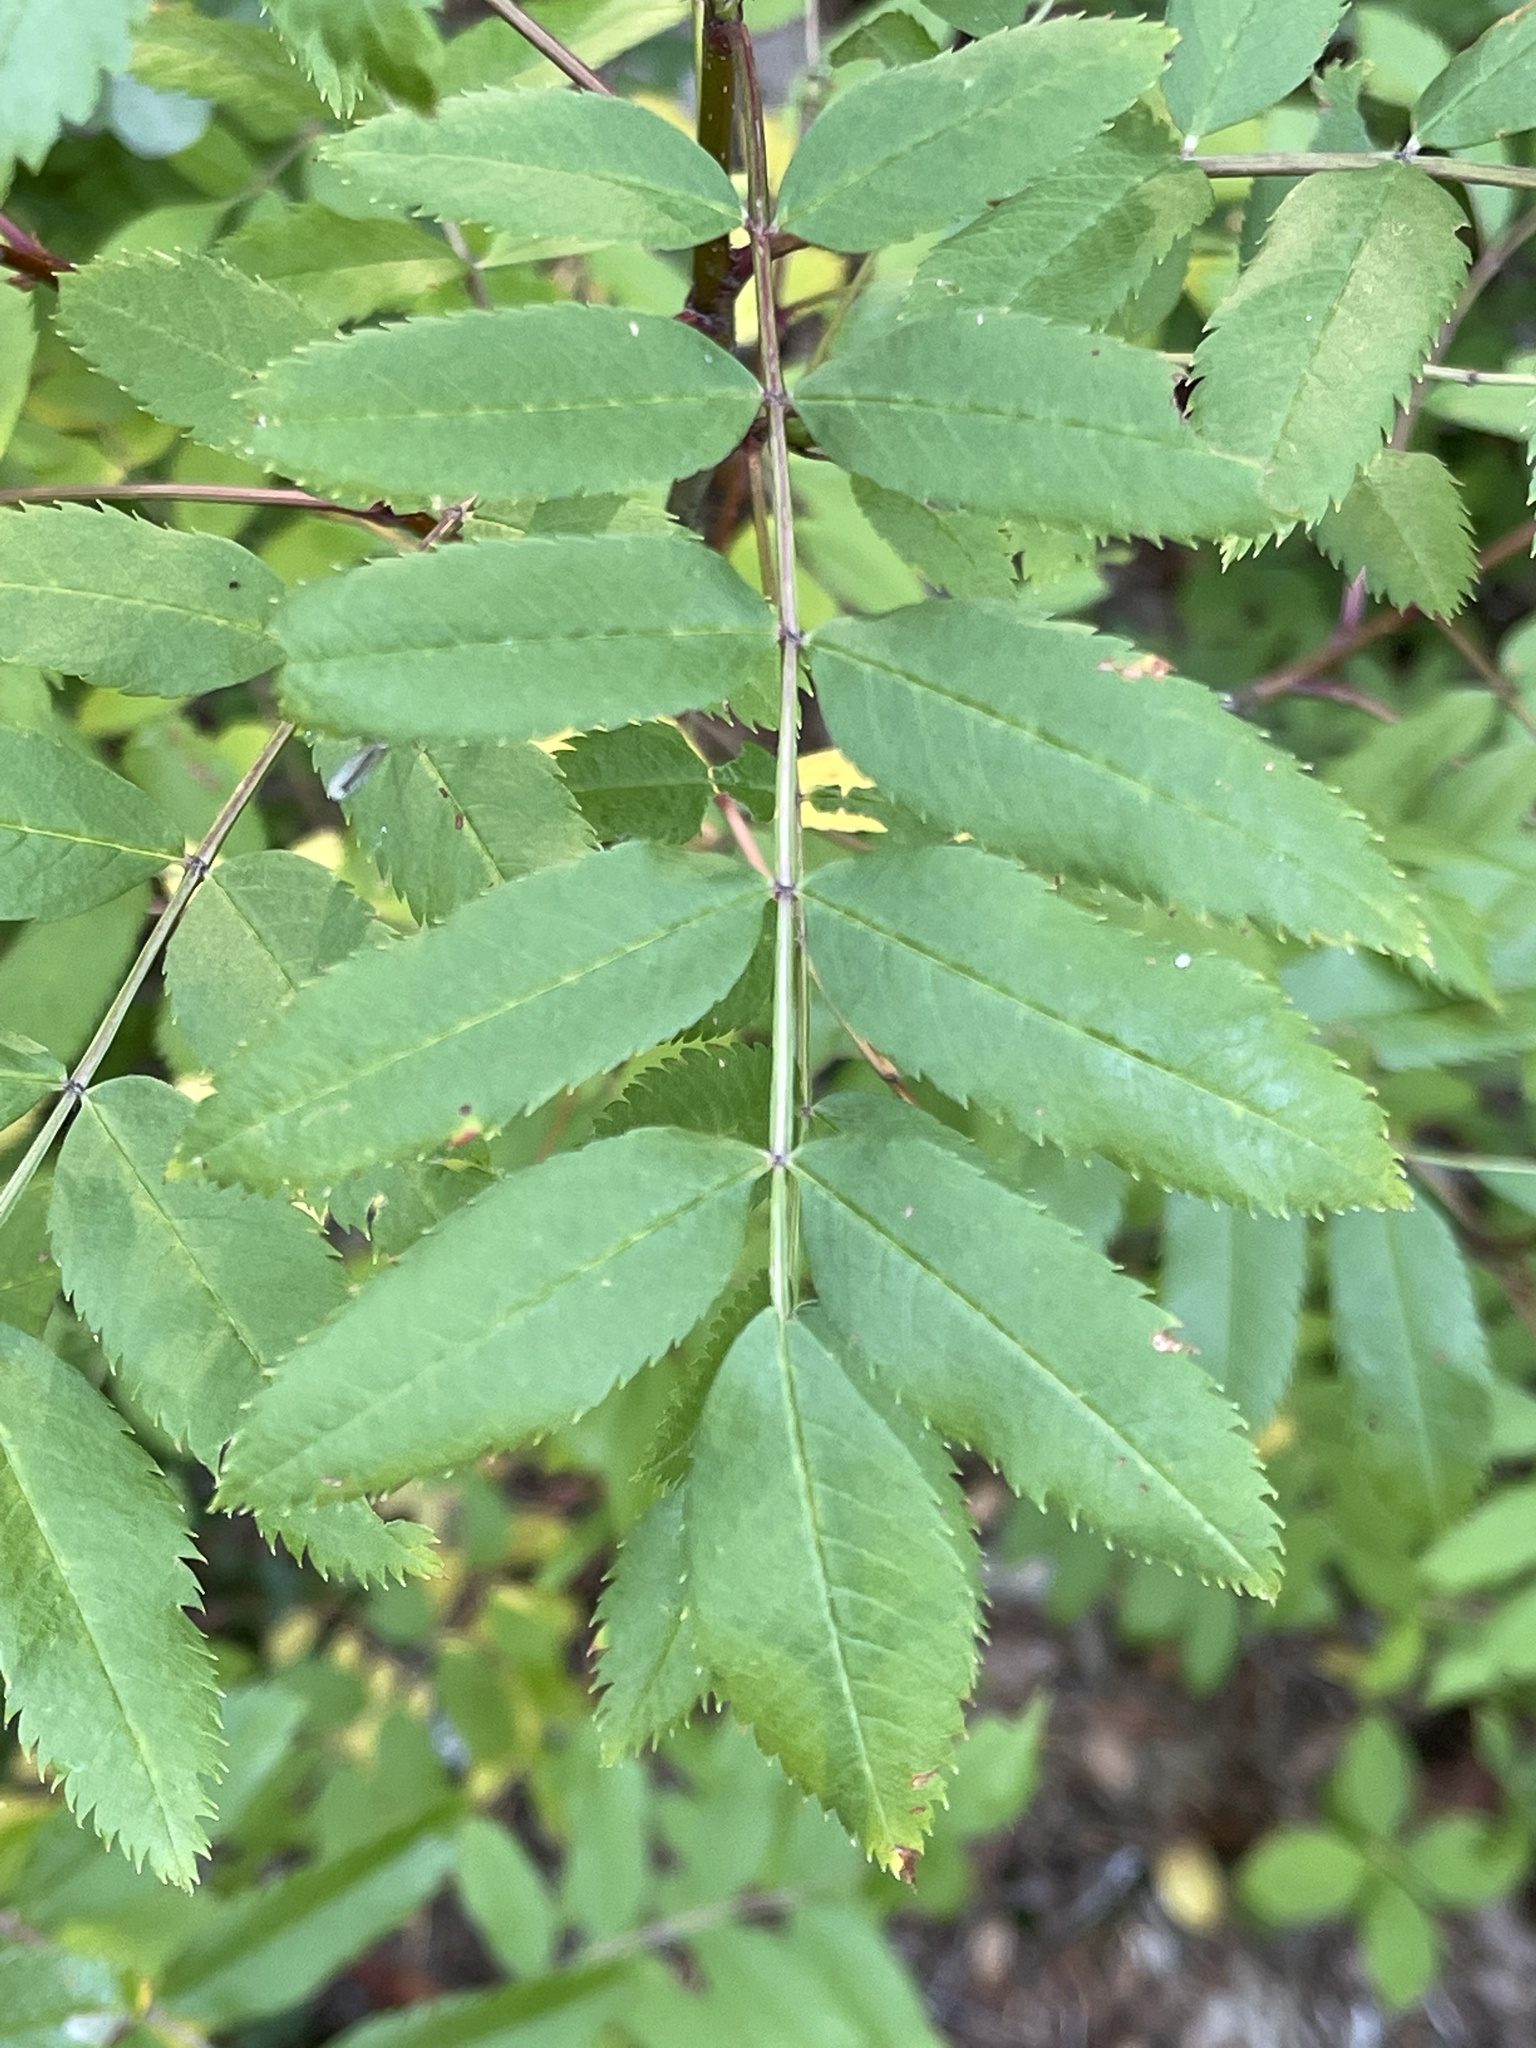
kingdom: Plantae
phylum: Tracheophyta
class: Magnoliopsida
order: Rosales
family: Rosaceae
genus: Sorbus
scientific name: Sorbus sitchensis
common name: Sitka mountain-ash
